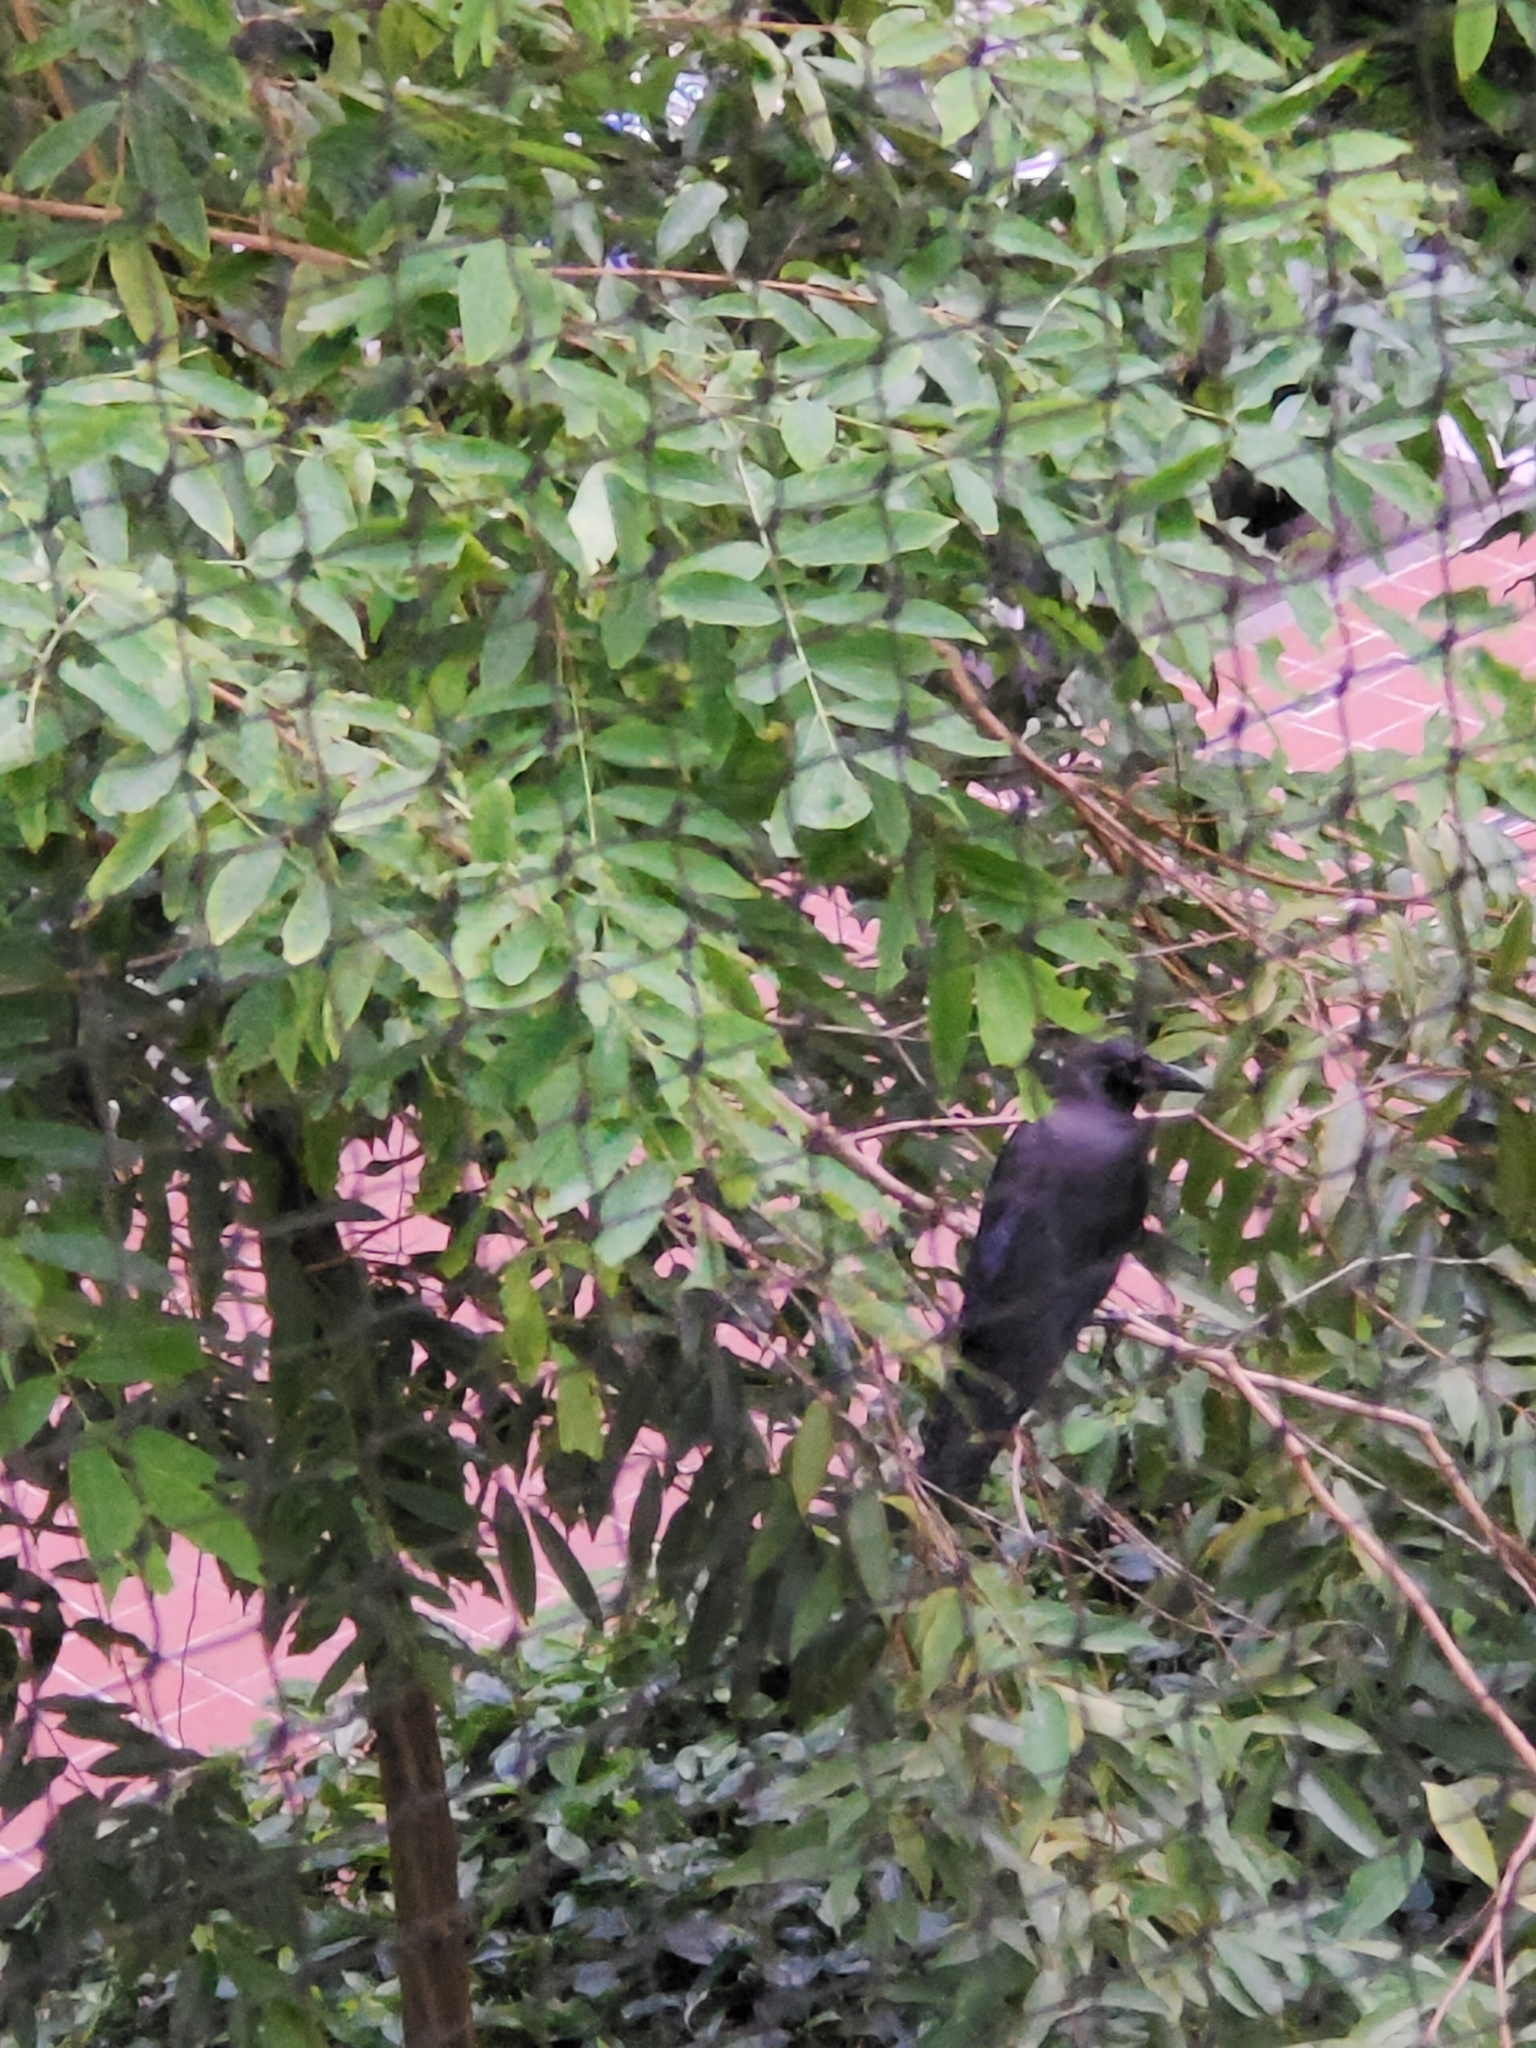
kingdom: Animalia
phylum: Chordata
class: Aves
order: Passeriformes
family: Corvidae
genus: Corvus
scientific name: Corvus splendens
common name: House crow
